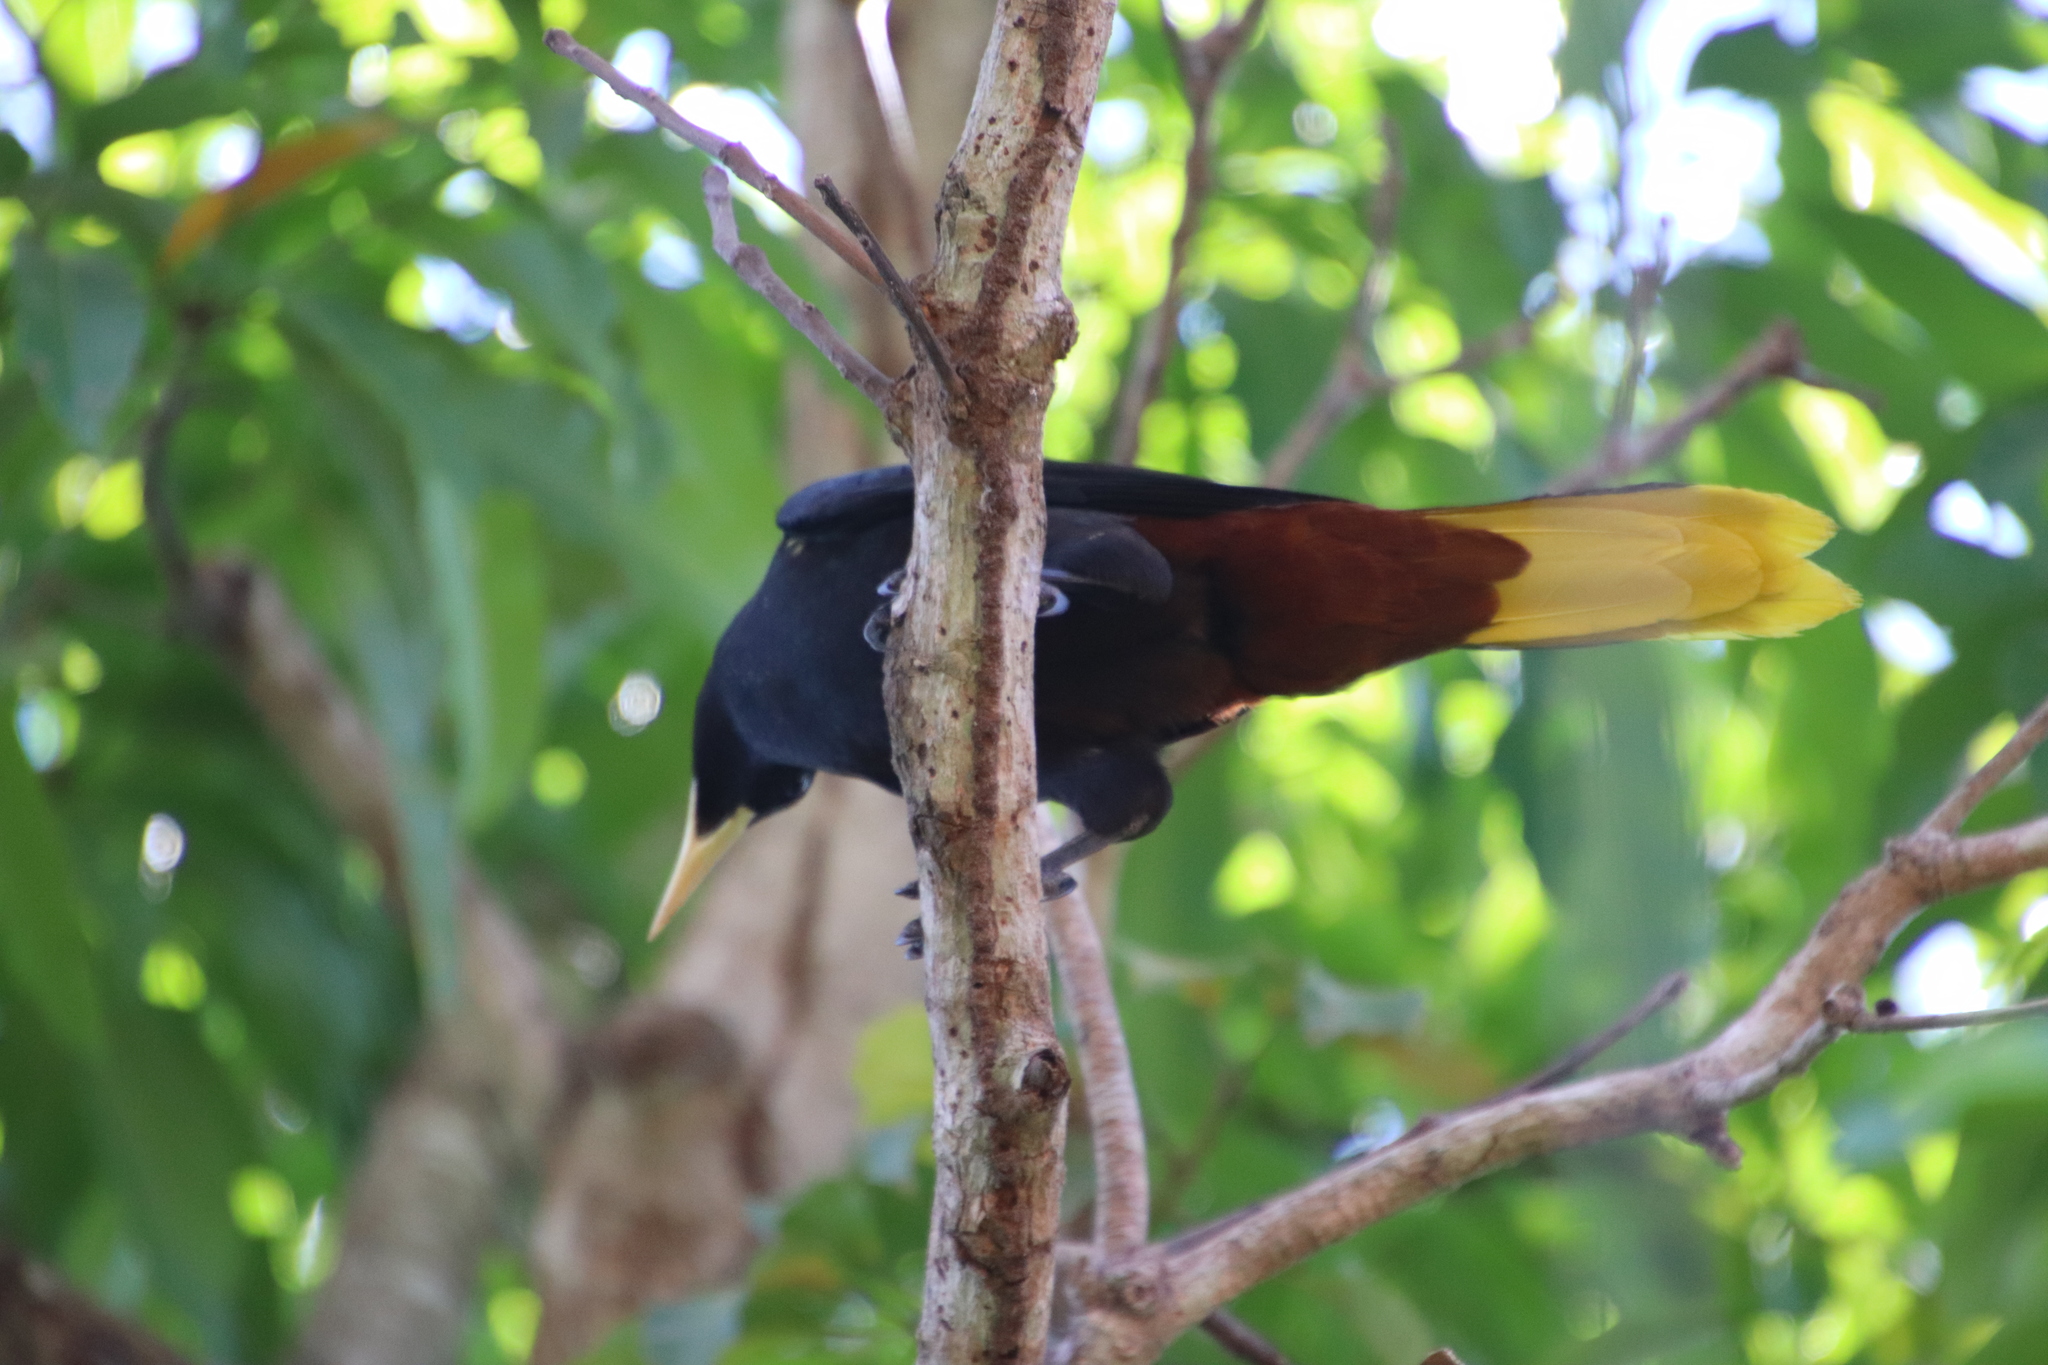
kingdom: Animalia
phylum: Chordata
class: Aves
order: Passeriformes
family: Icteridae
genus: Psarocolius
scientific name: Psarocolius decumanus
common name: Crested oropendola
